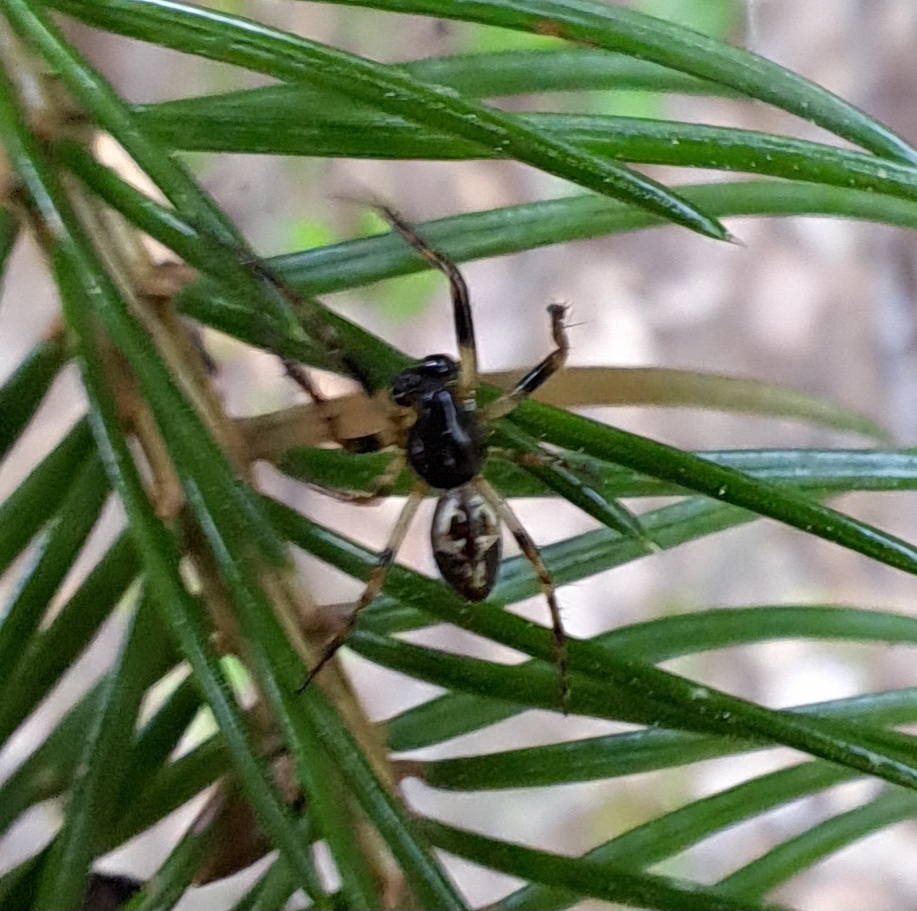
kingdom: Animalia
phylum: Arthropoda
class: Arachnida
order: Araneae
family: Araneidae
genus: Cyclosa
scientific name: Cyclosa conica
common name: Conical trashline orbweaver
